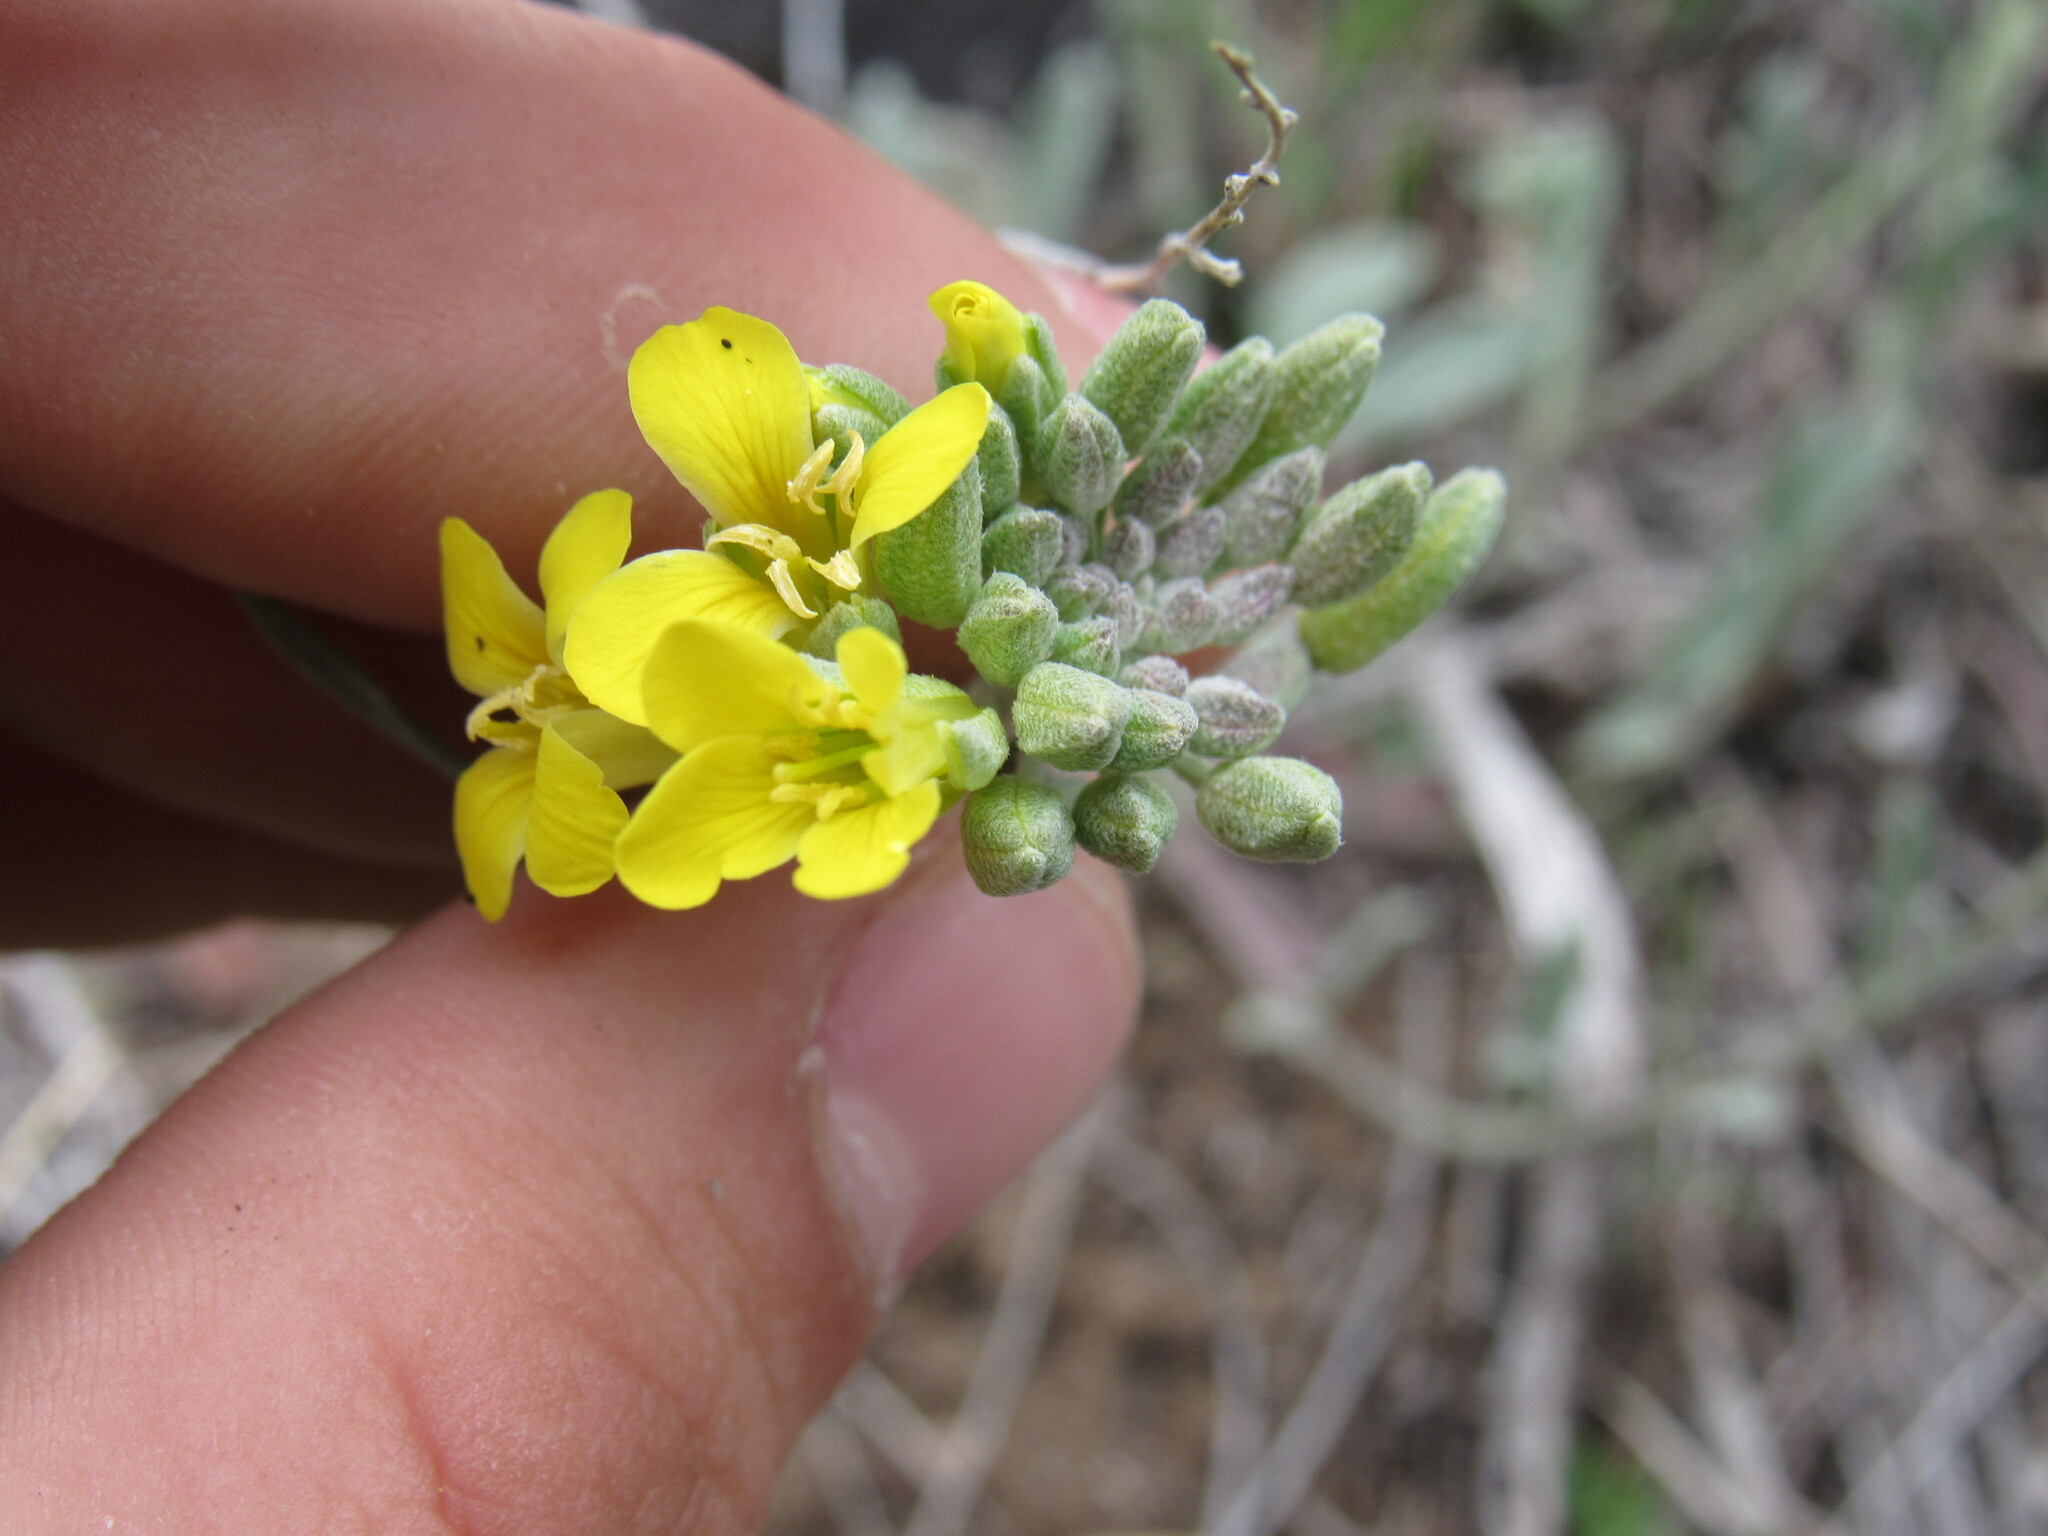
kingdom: Plantae
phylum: Tracheophyta
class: Magnoliopsida
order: Brassicales
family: Brassicaceae
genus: Physaria
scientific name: Physaria montana
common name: Mountain bladderpod
